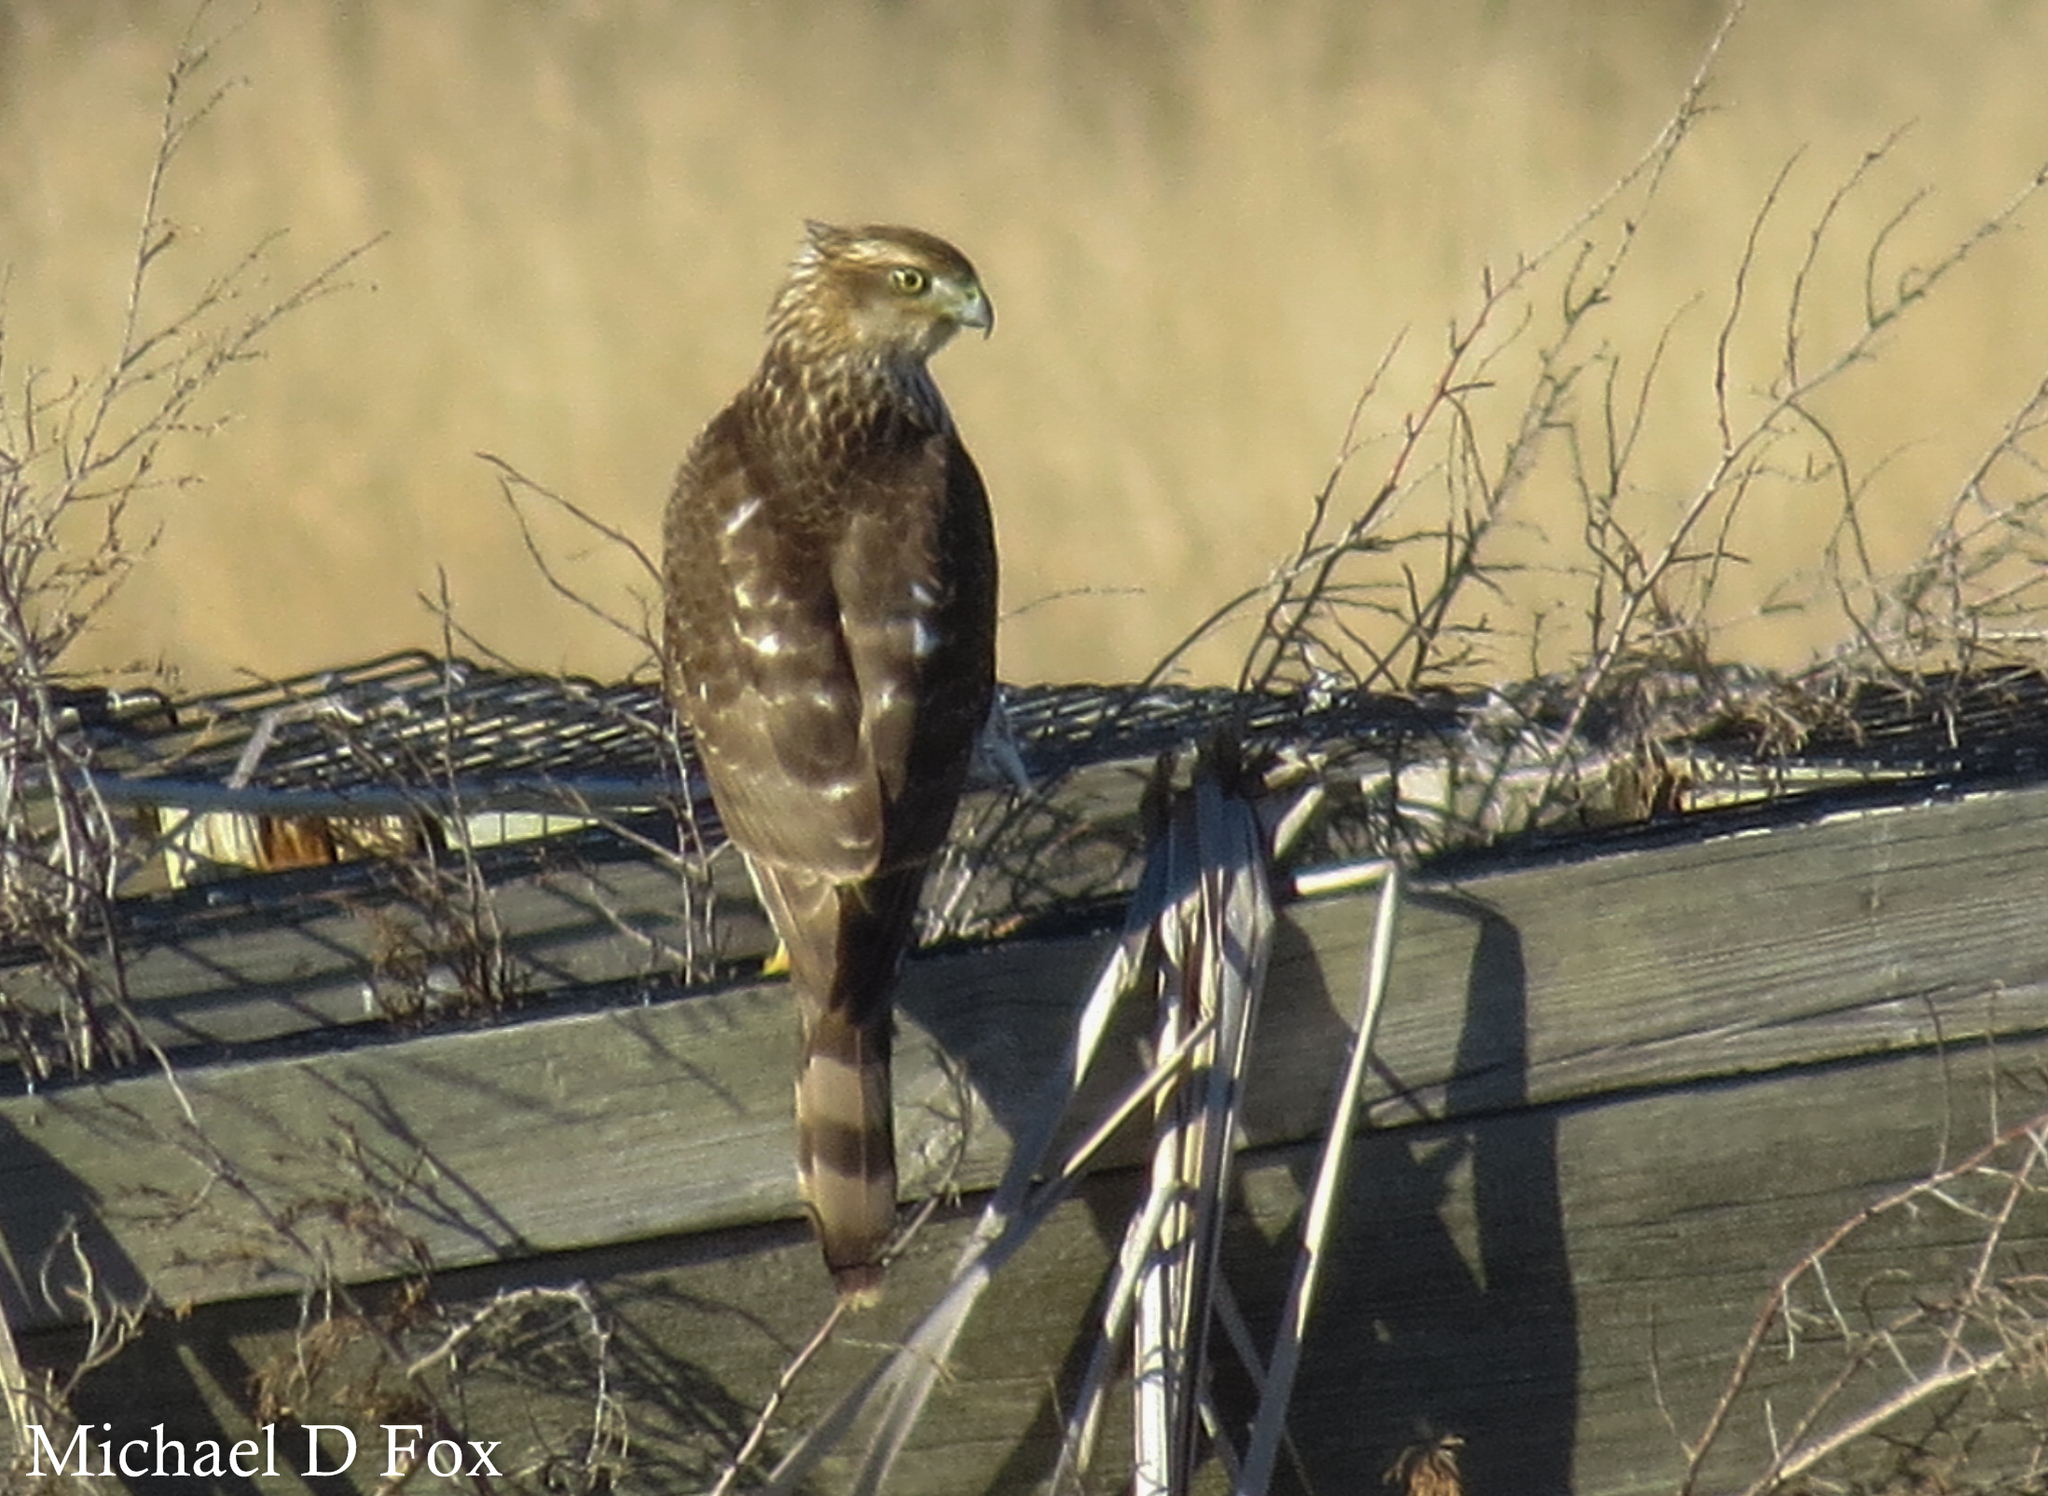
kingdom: Animalia
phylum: Chordata
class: Aves
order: Accipitriformes
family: Accipitridae
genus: Accipiter
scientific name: Accipiter cooperii
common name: Cooper's hawk
